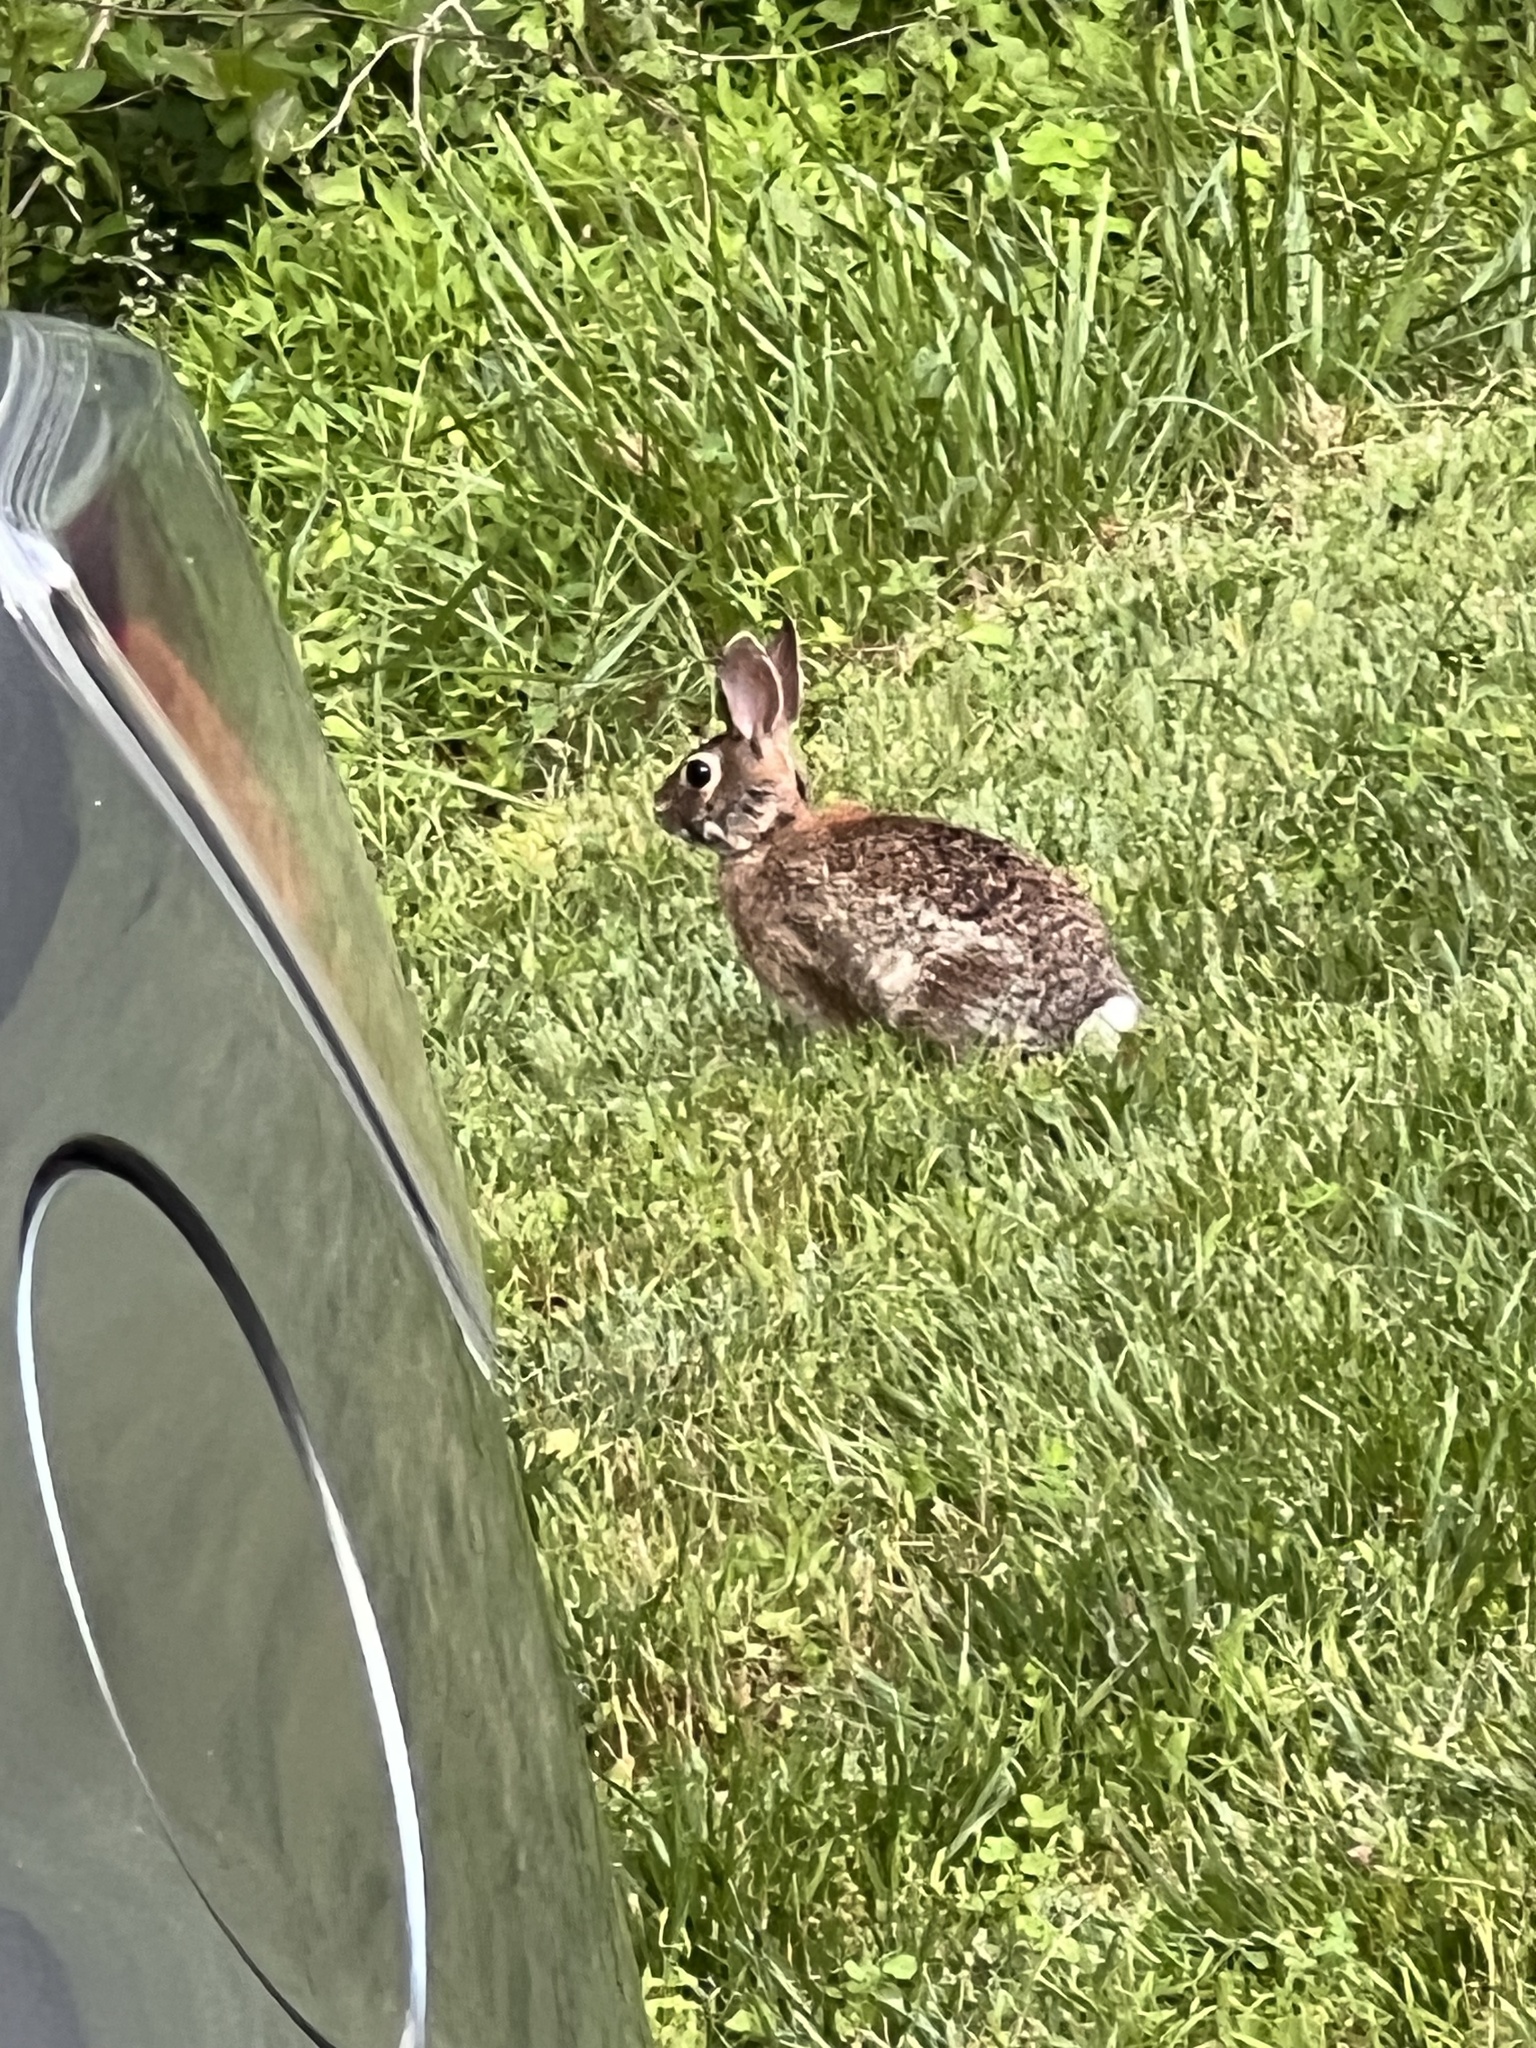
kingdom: Animalia
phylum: Chordata
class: Mammalia
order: Lagomorpha
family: Leporidae
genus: Sylvilagus
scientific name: Sylvilagus floridanus
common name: Eastern cottontail
